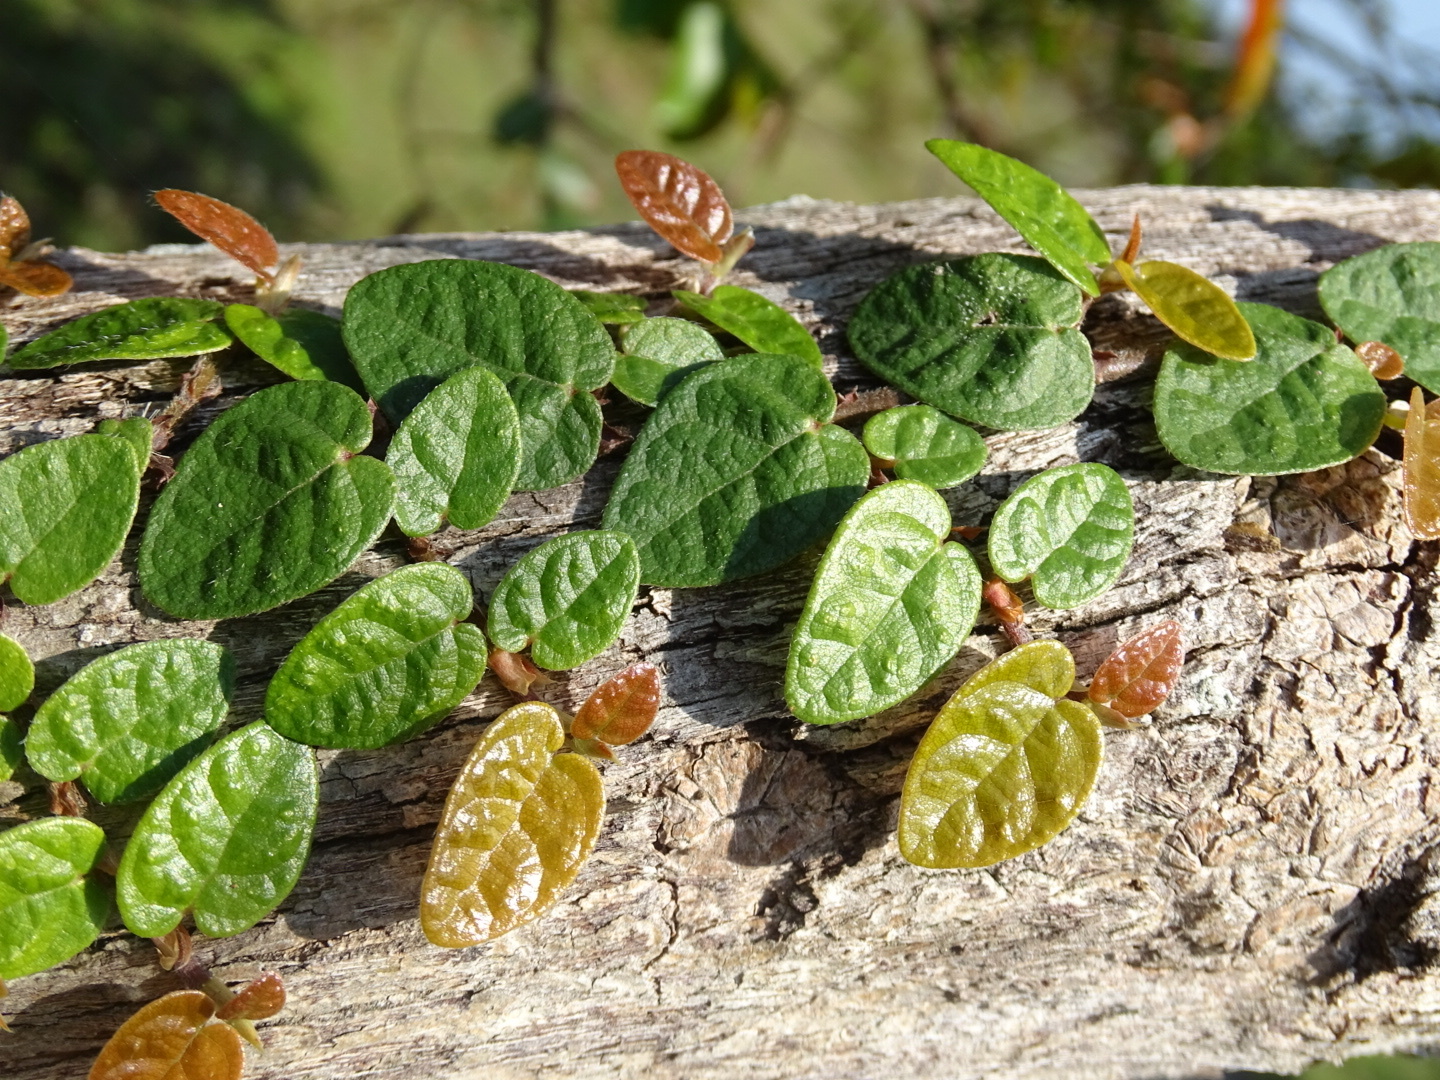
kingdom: Plantae
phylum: Tracheophyta
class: Magnoliopsida
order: Rosales
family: Moraceae
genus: Ficus
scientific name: Ficus pumila
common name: Climbingfig
